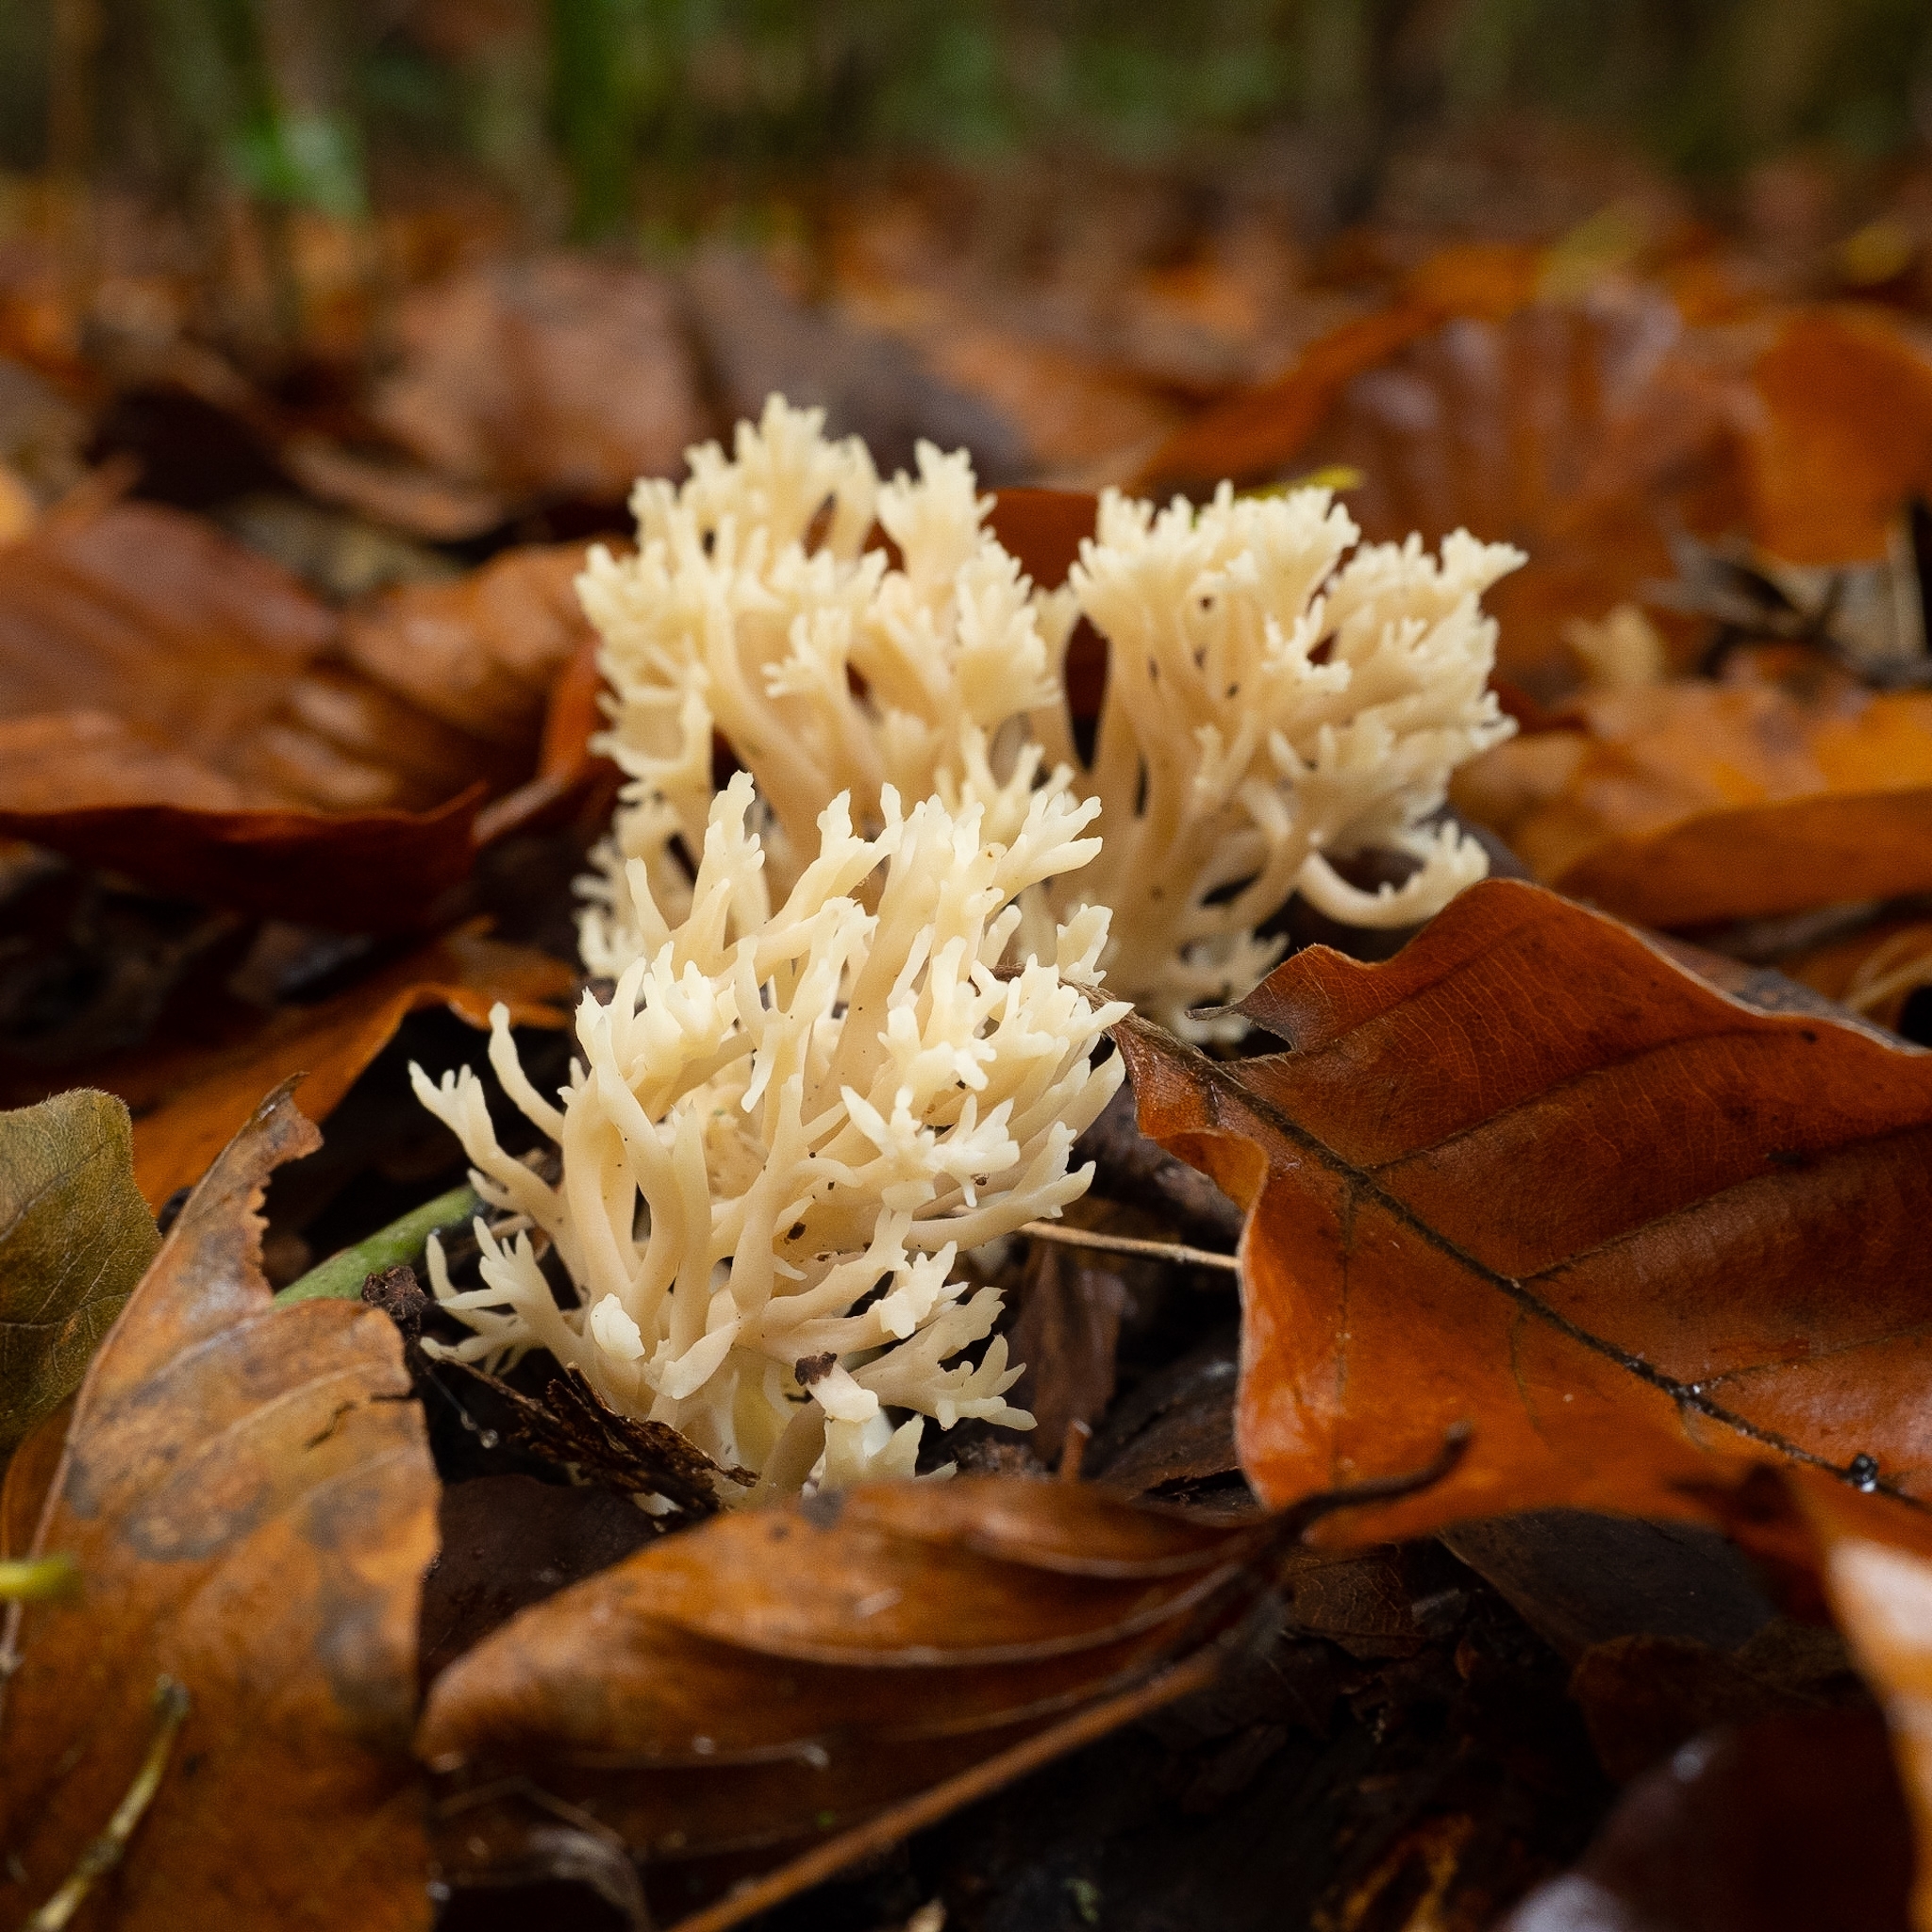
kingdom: Fungi
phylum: Basidiomycota
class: Agaricomycetes
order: Cantharellales
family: Hydnaceae
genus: Clavulina
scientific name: Clavulina coralloides
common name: Crested coral
